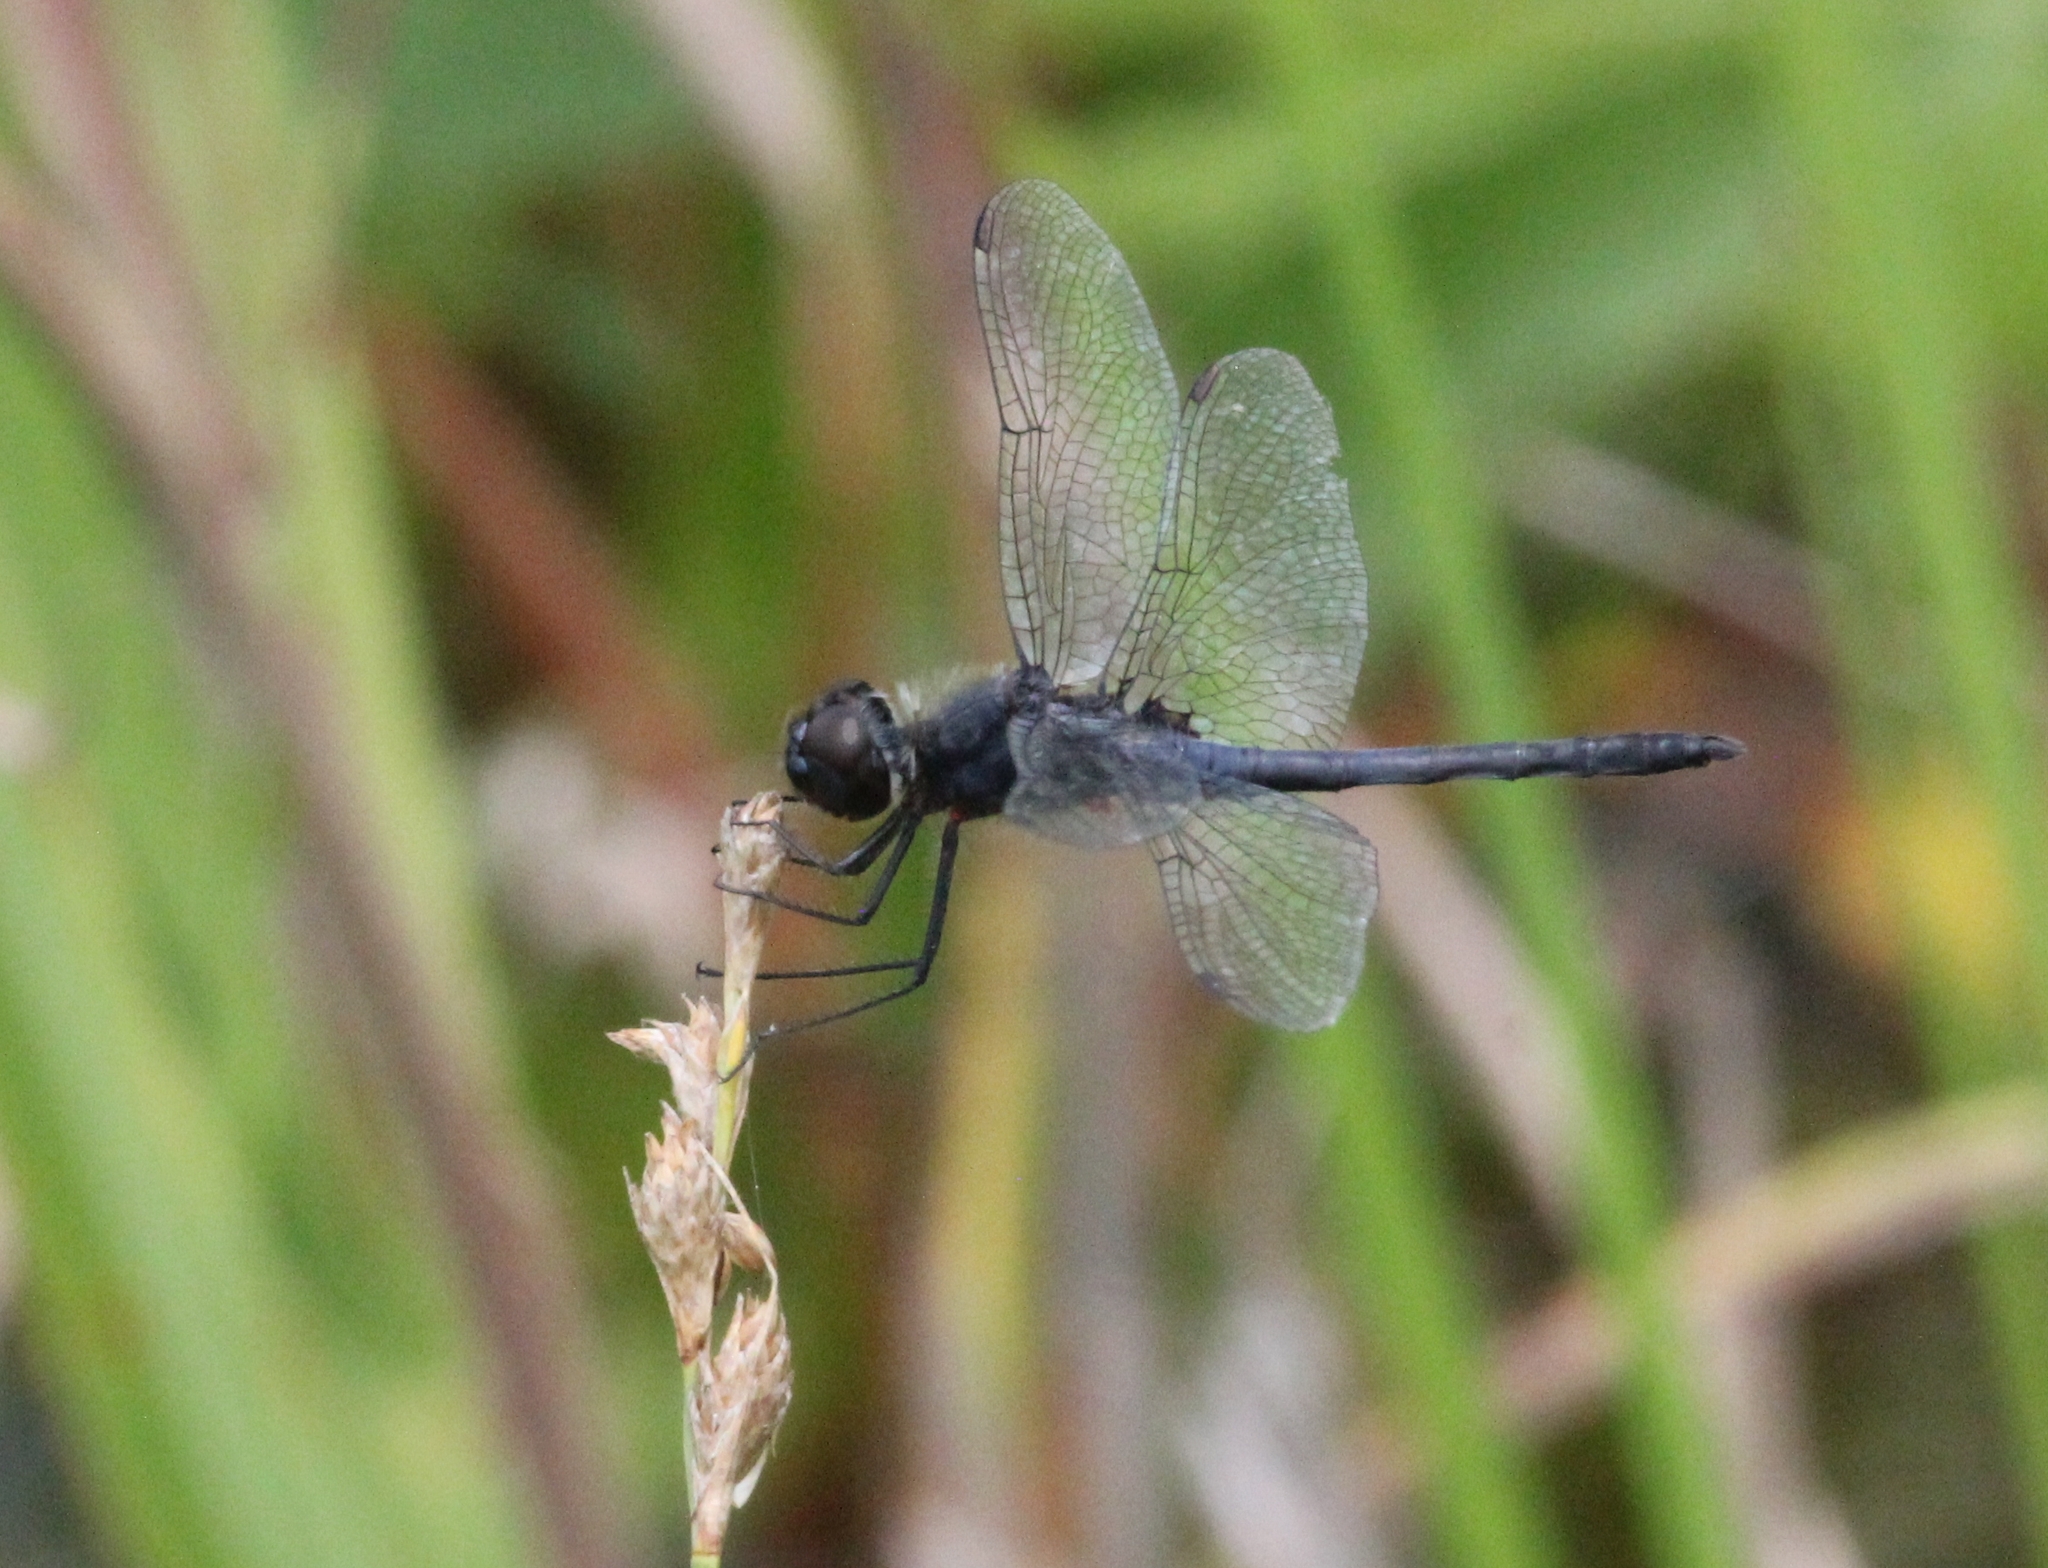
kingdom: Animalia
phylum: Arthropoda
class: Insecta
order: Odonata
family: Libellulidae
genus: Celithemis
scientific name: Celithemis verna
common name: Double-ringed pennant
